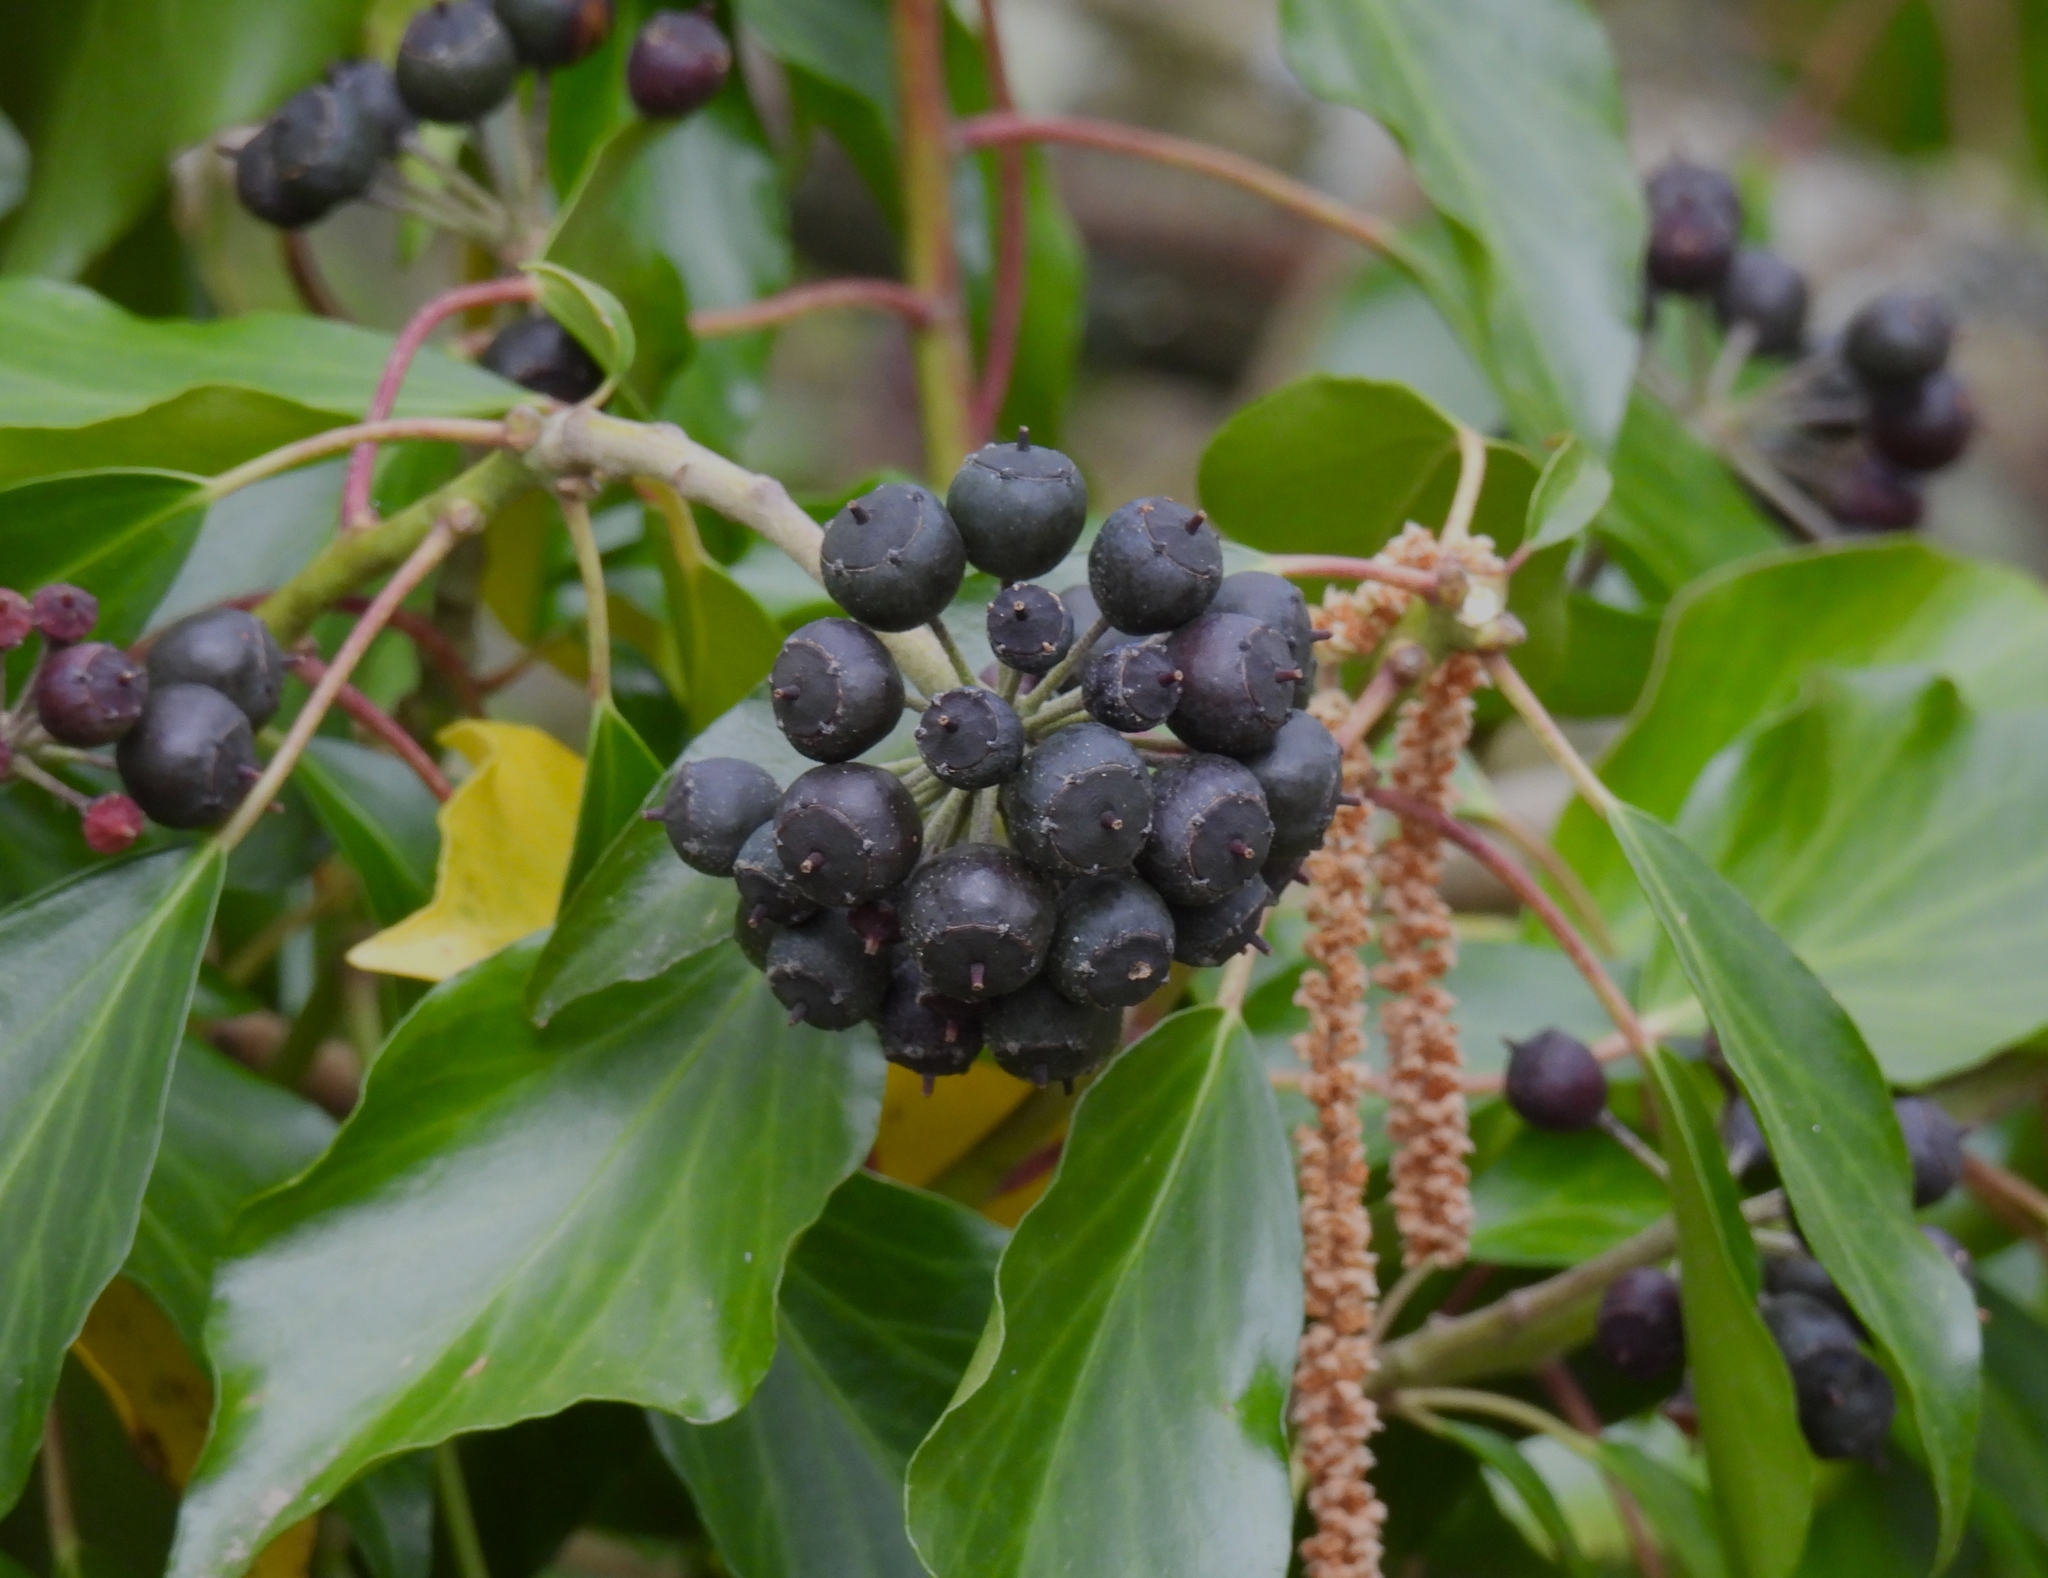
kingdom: Plantae
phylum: Tracheophyta
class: Magnoliopsida
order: Apiales
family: Araliaceae
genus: Hedera
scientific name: Hedera helix
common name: Ivy
